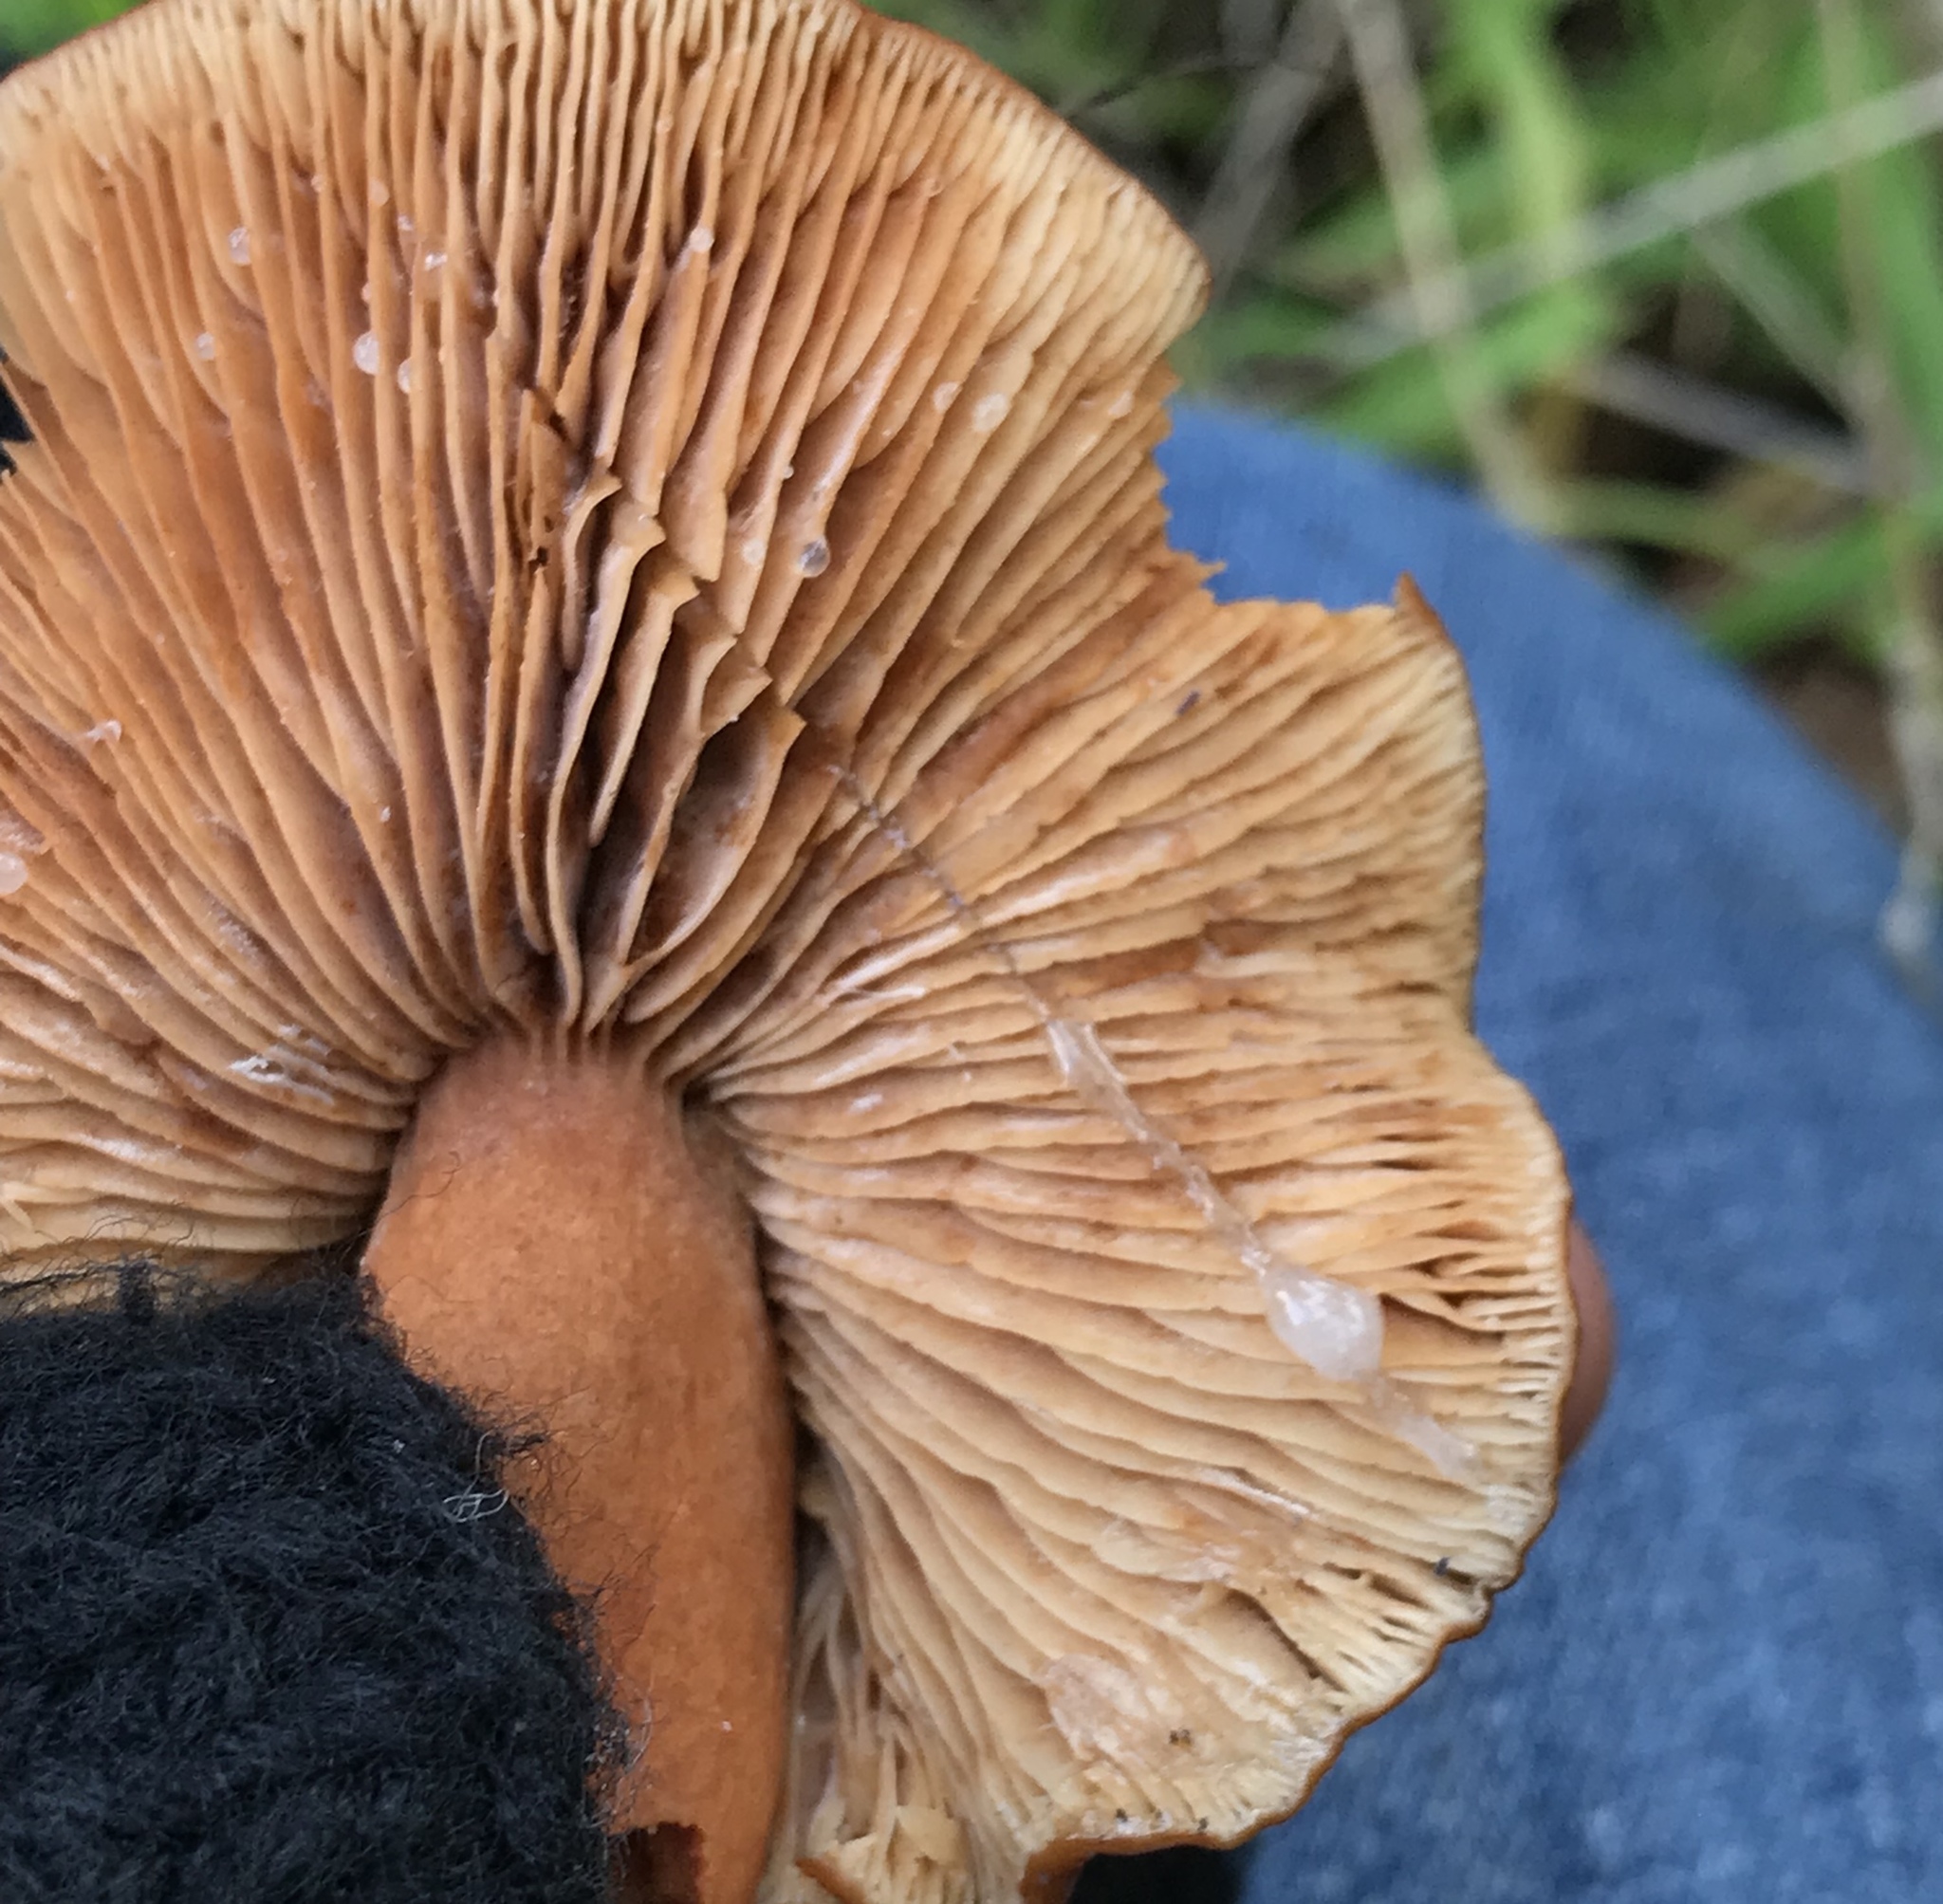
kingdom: Fungi
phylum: Basidiomycota
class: Agaricomycetes
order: Russulales
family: Russulaceae
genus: Lactarius
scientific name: Lactarius rubidus
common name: Candy cap
